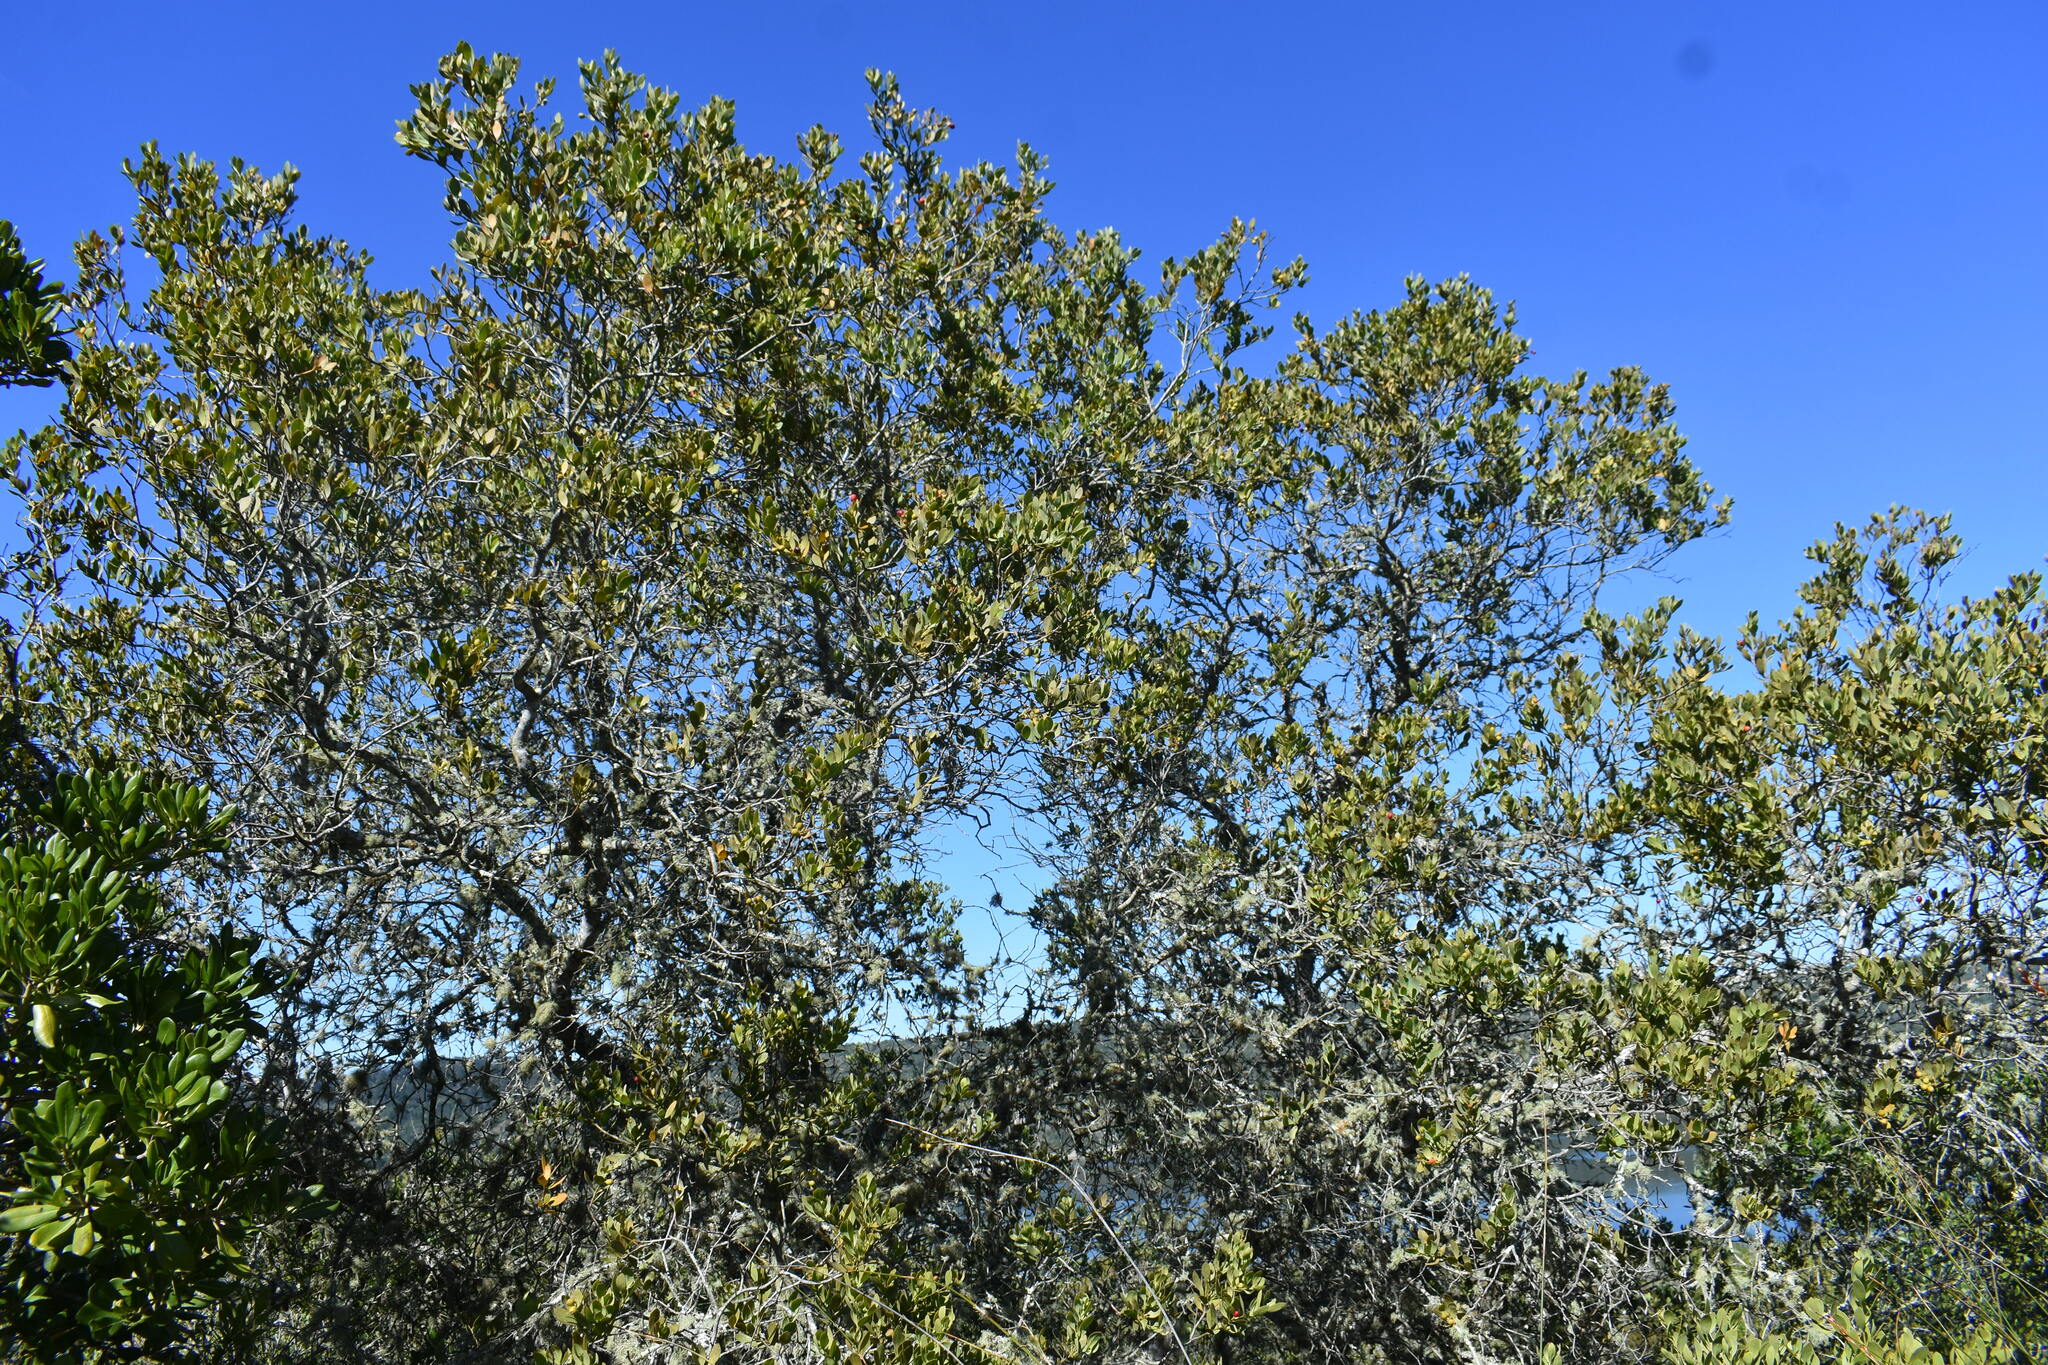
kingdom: Plantae
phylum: Tracheophyta
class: Magnoliopsida
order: Santalales
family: Santalaceae
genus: Osyris
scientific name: Osyris compressa
